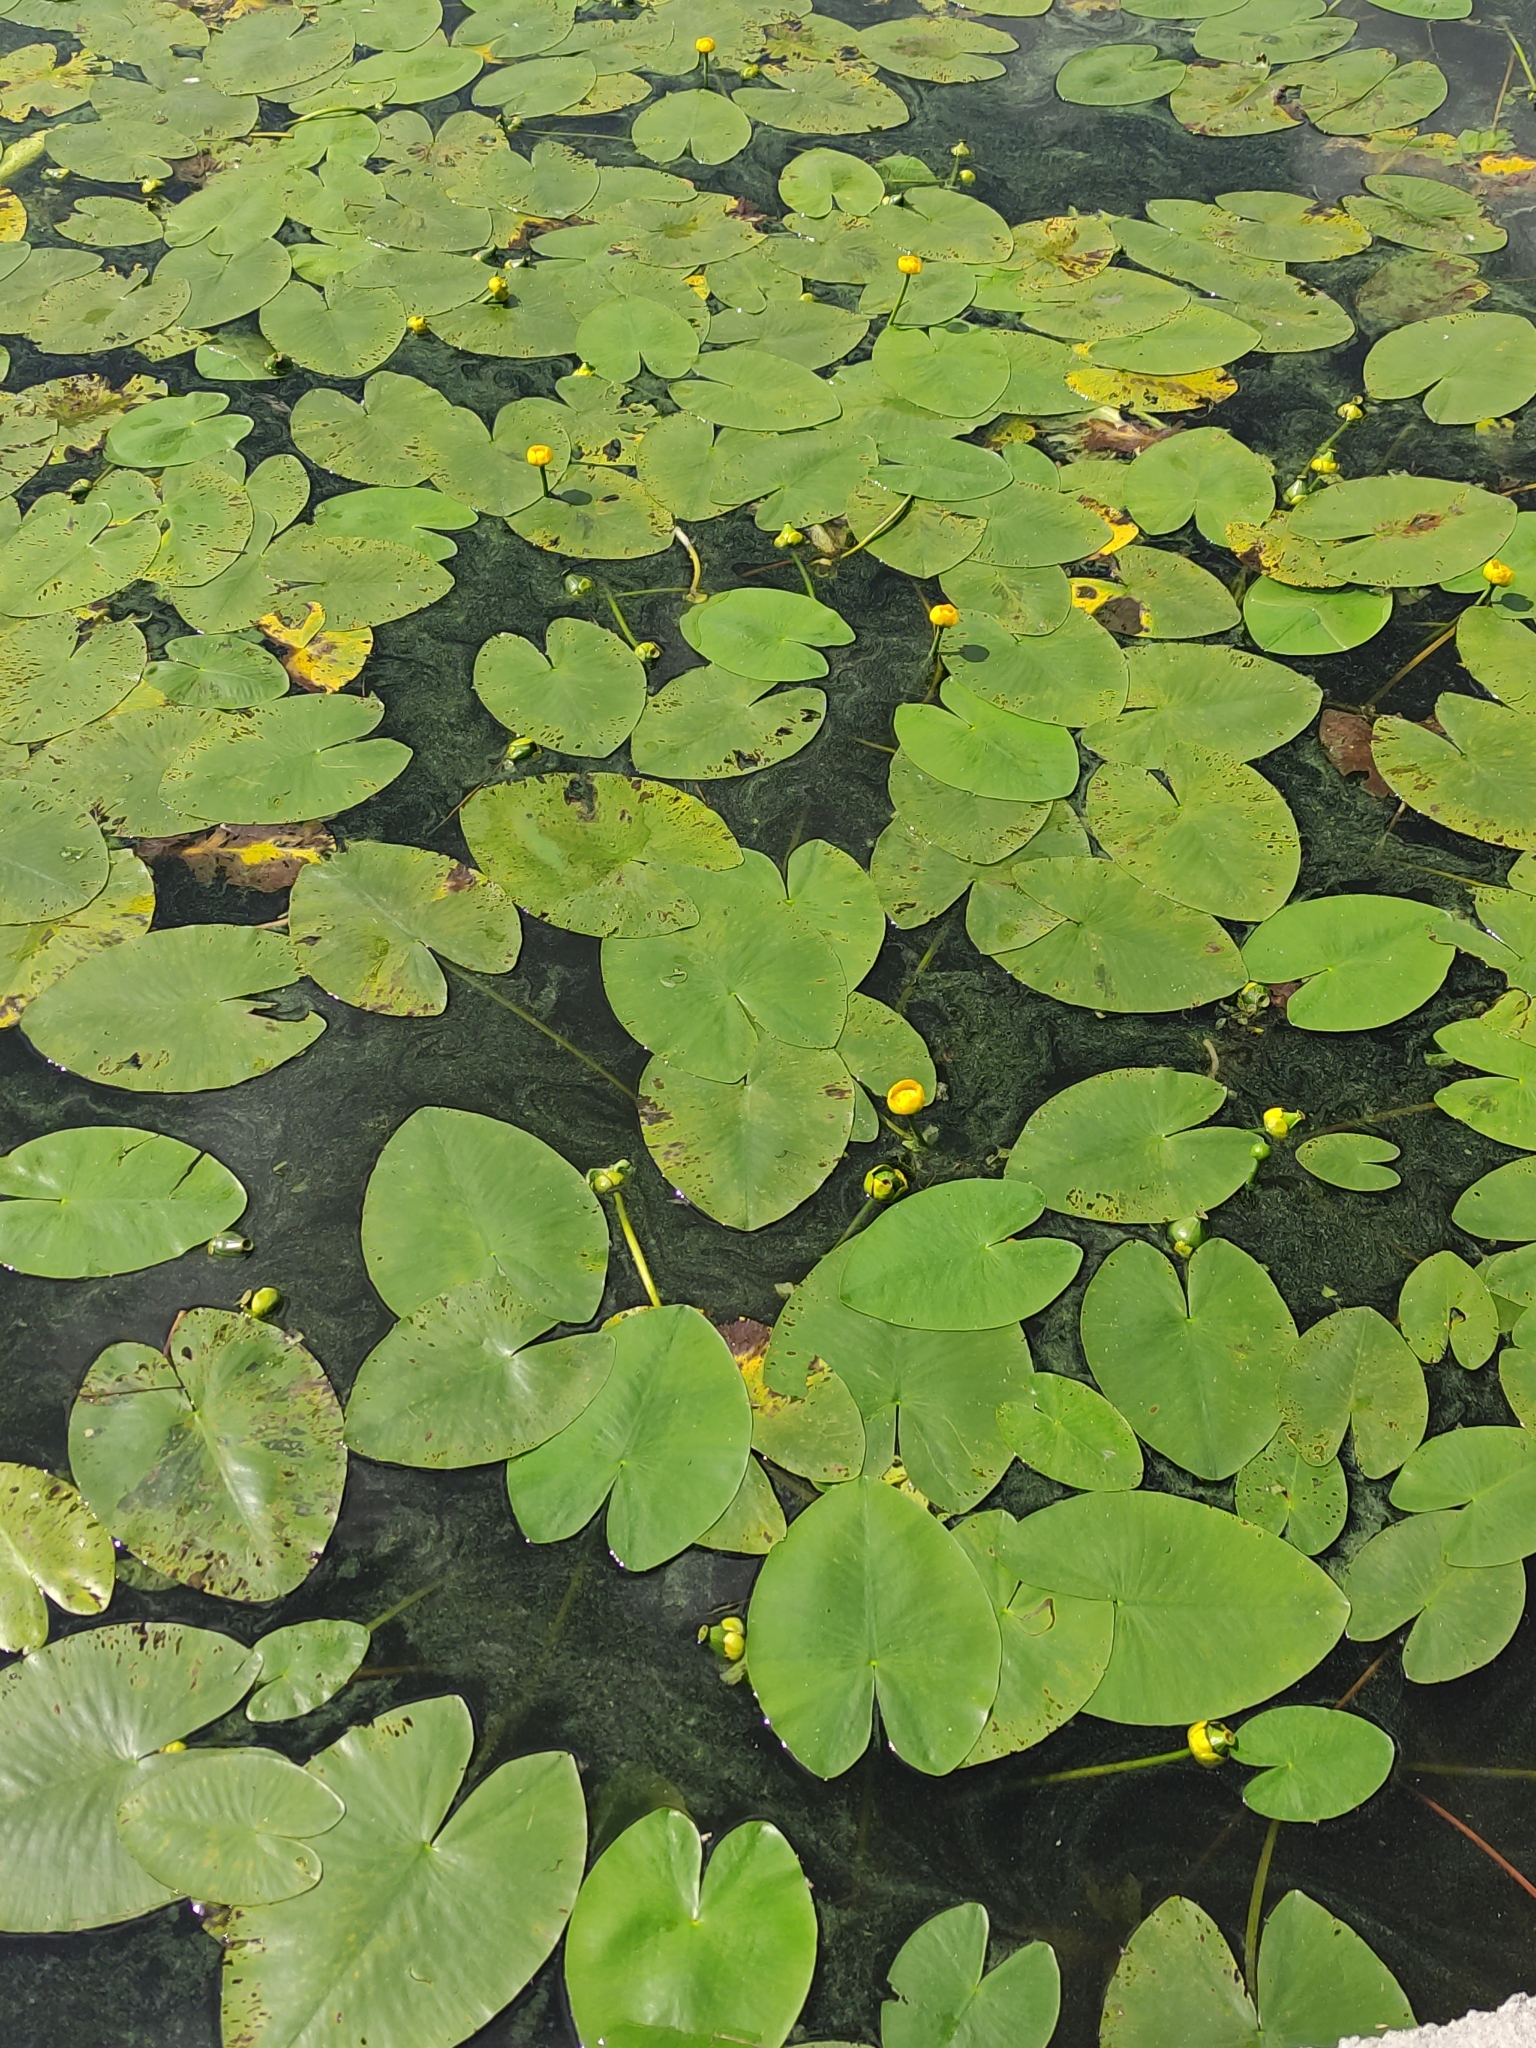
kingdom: Plantae
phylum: Tracheophyta
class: Magnoliopsida
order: Nymphaeales
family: Nymphaeaceae
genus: Nuphar
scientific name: Nuphar lutea
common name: Yellow water-lily
